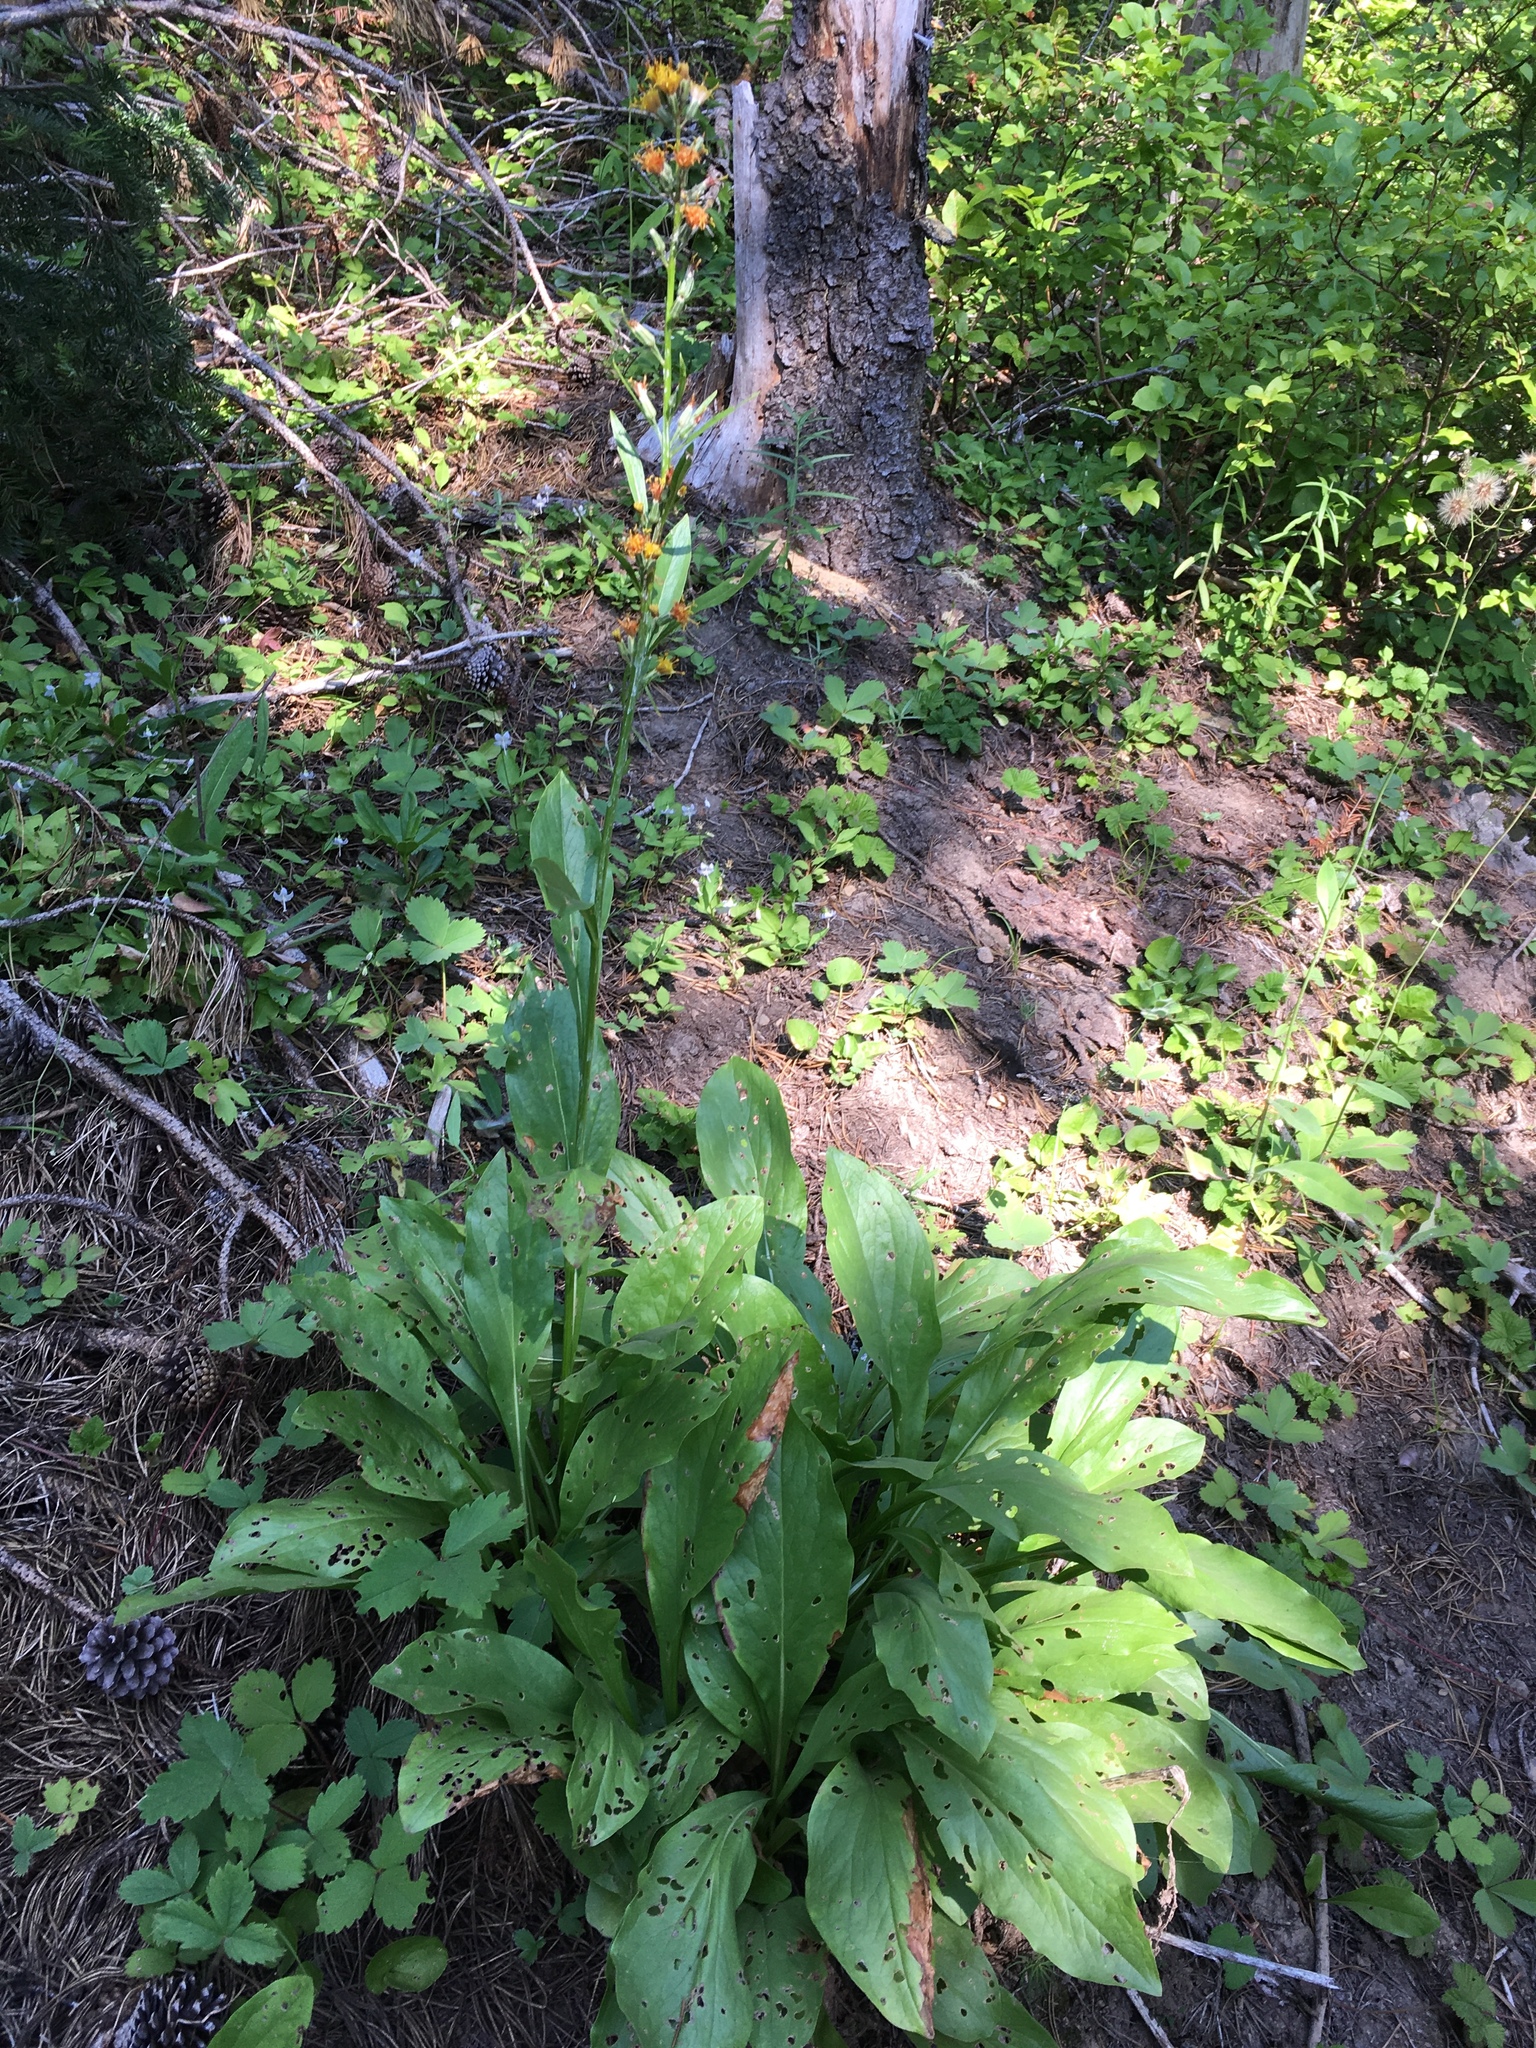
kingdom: Plantae
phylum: Tracheophyta
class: Magnoliopsida
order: Asterales
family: Asteraceae
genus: Rainiera
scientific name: Rainiera stricta
